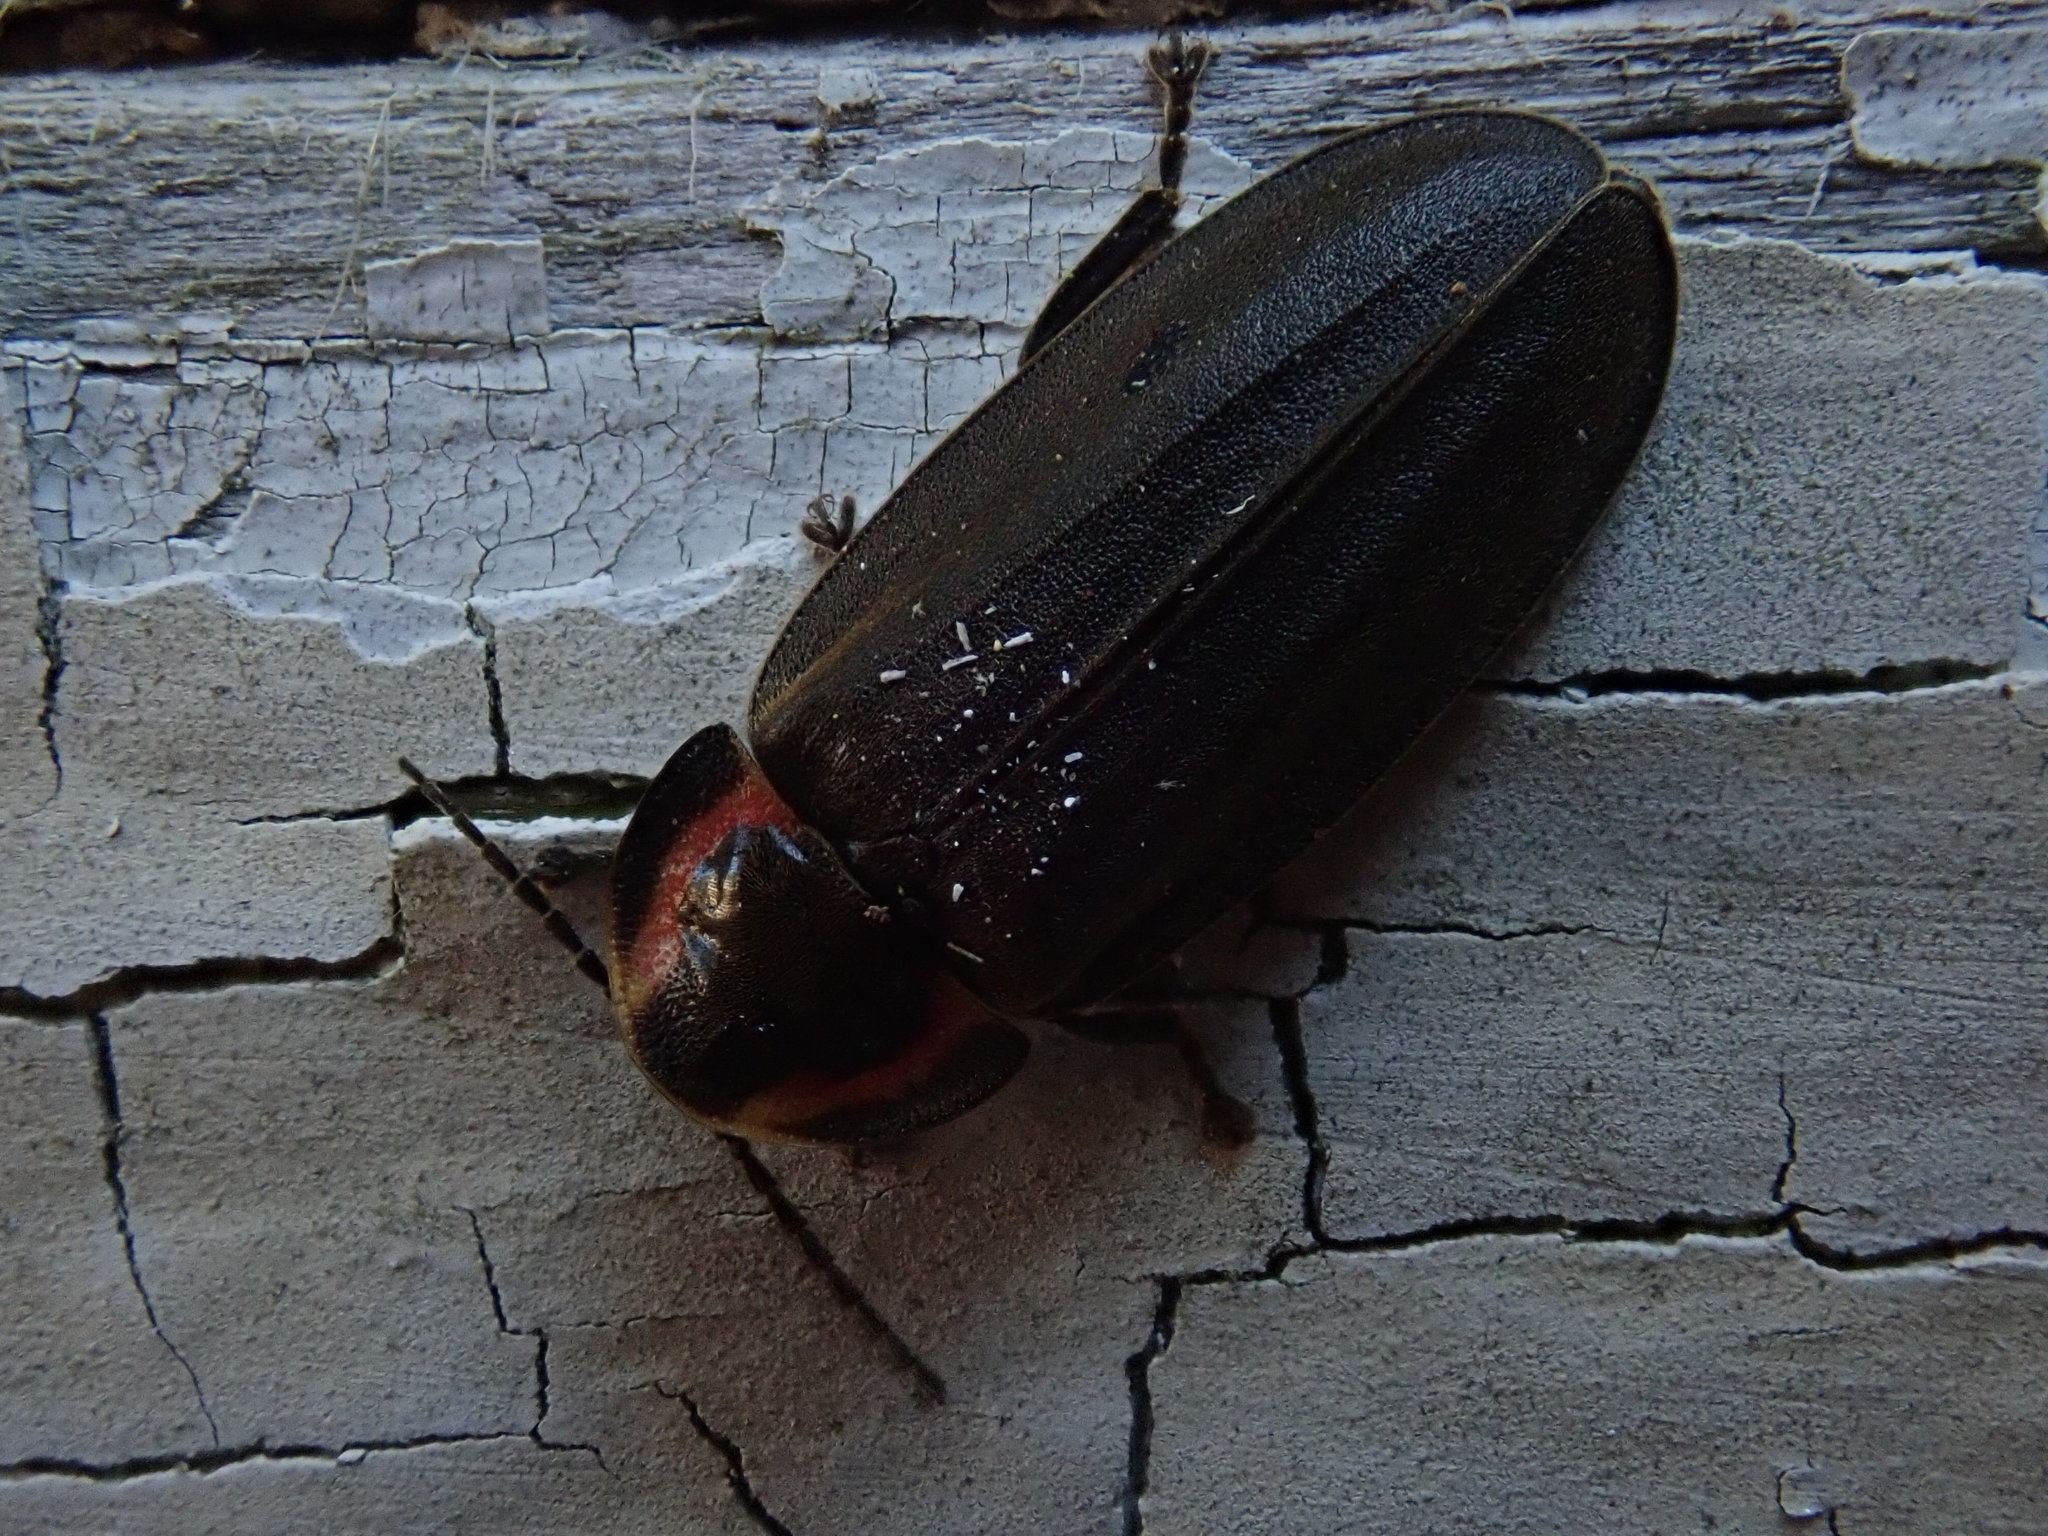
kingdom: Animalia
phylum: Arthropoda
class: Insecta
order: Coleoptera
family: Lampyridae
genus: Photinus
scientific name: Photinus corrusca
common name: Winter firefly
